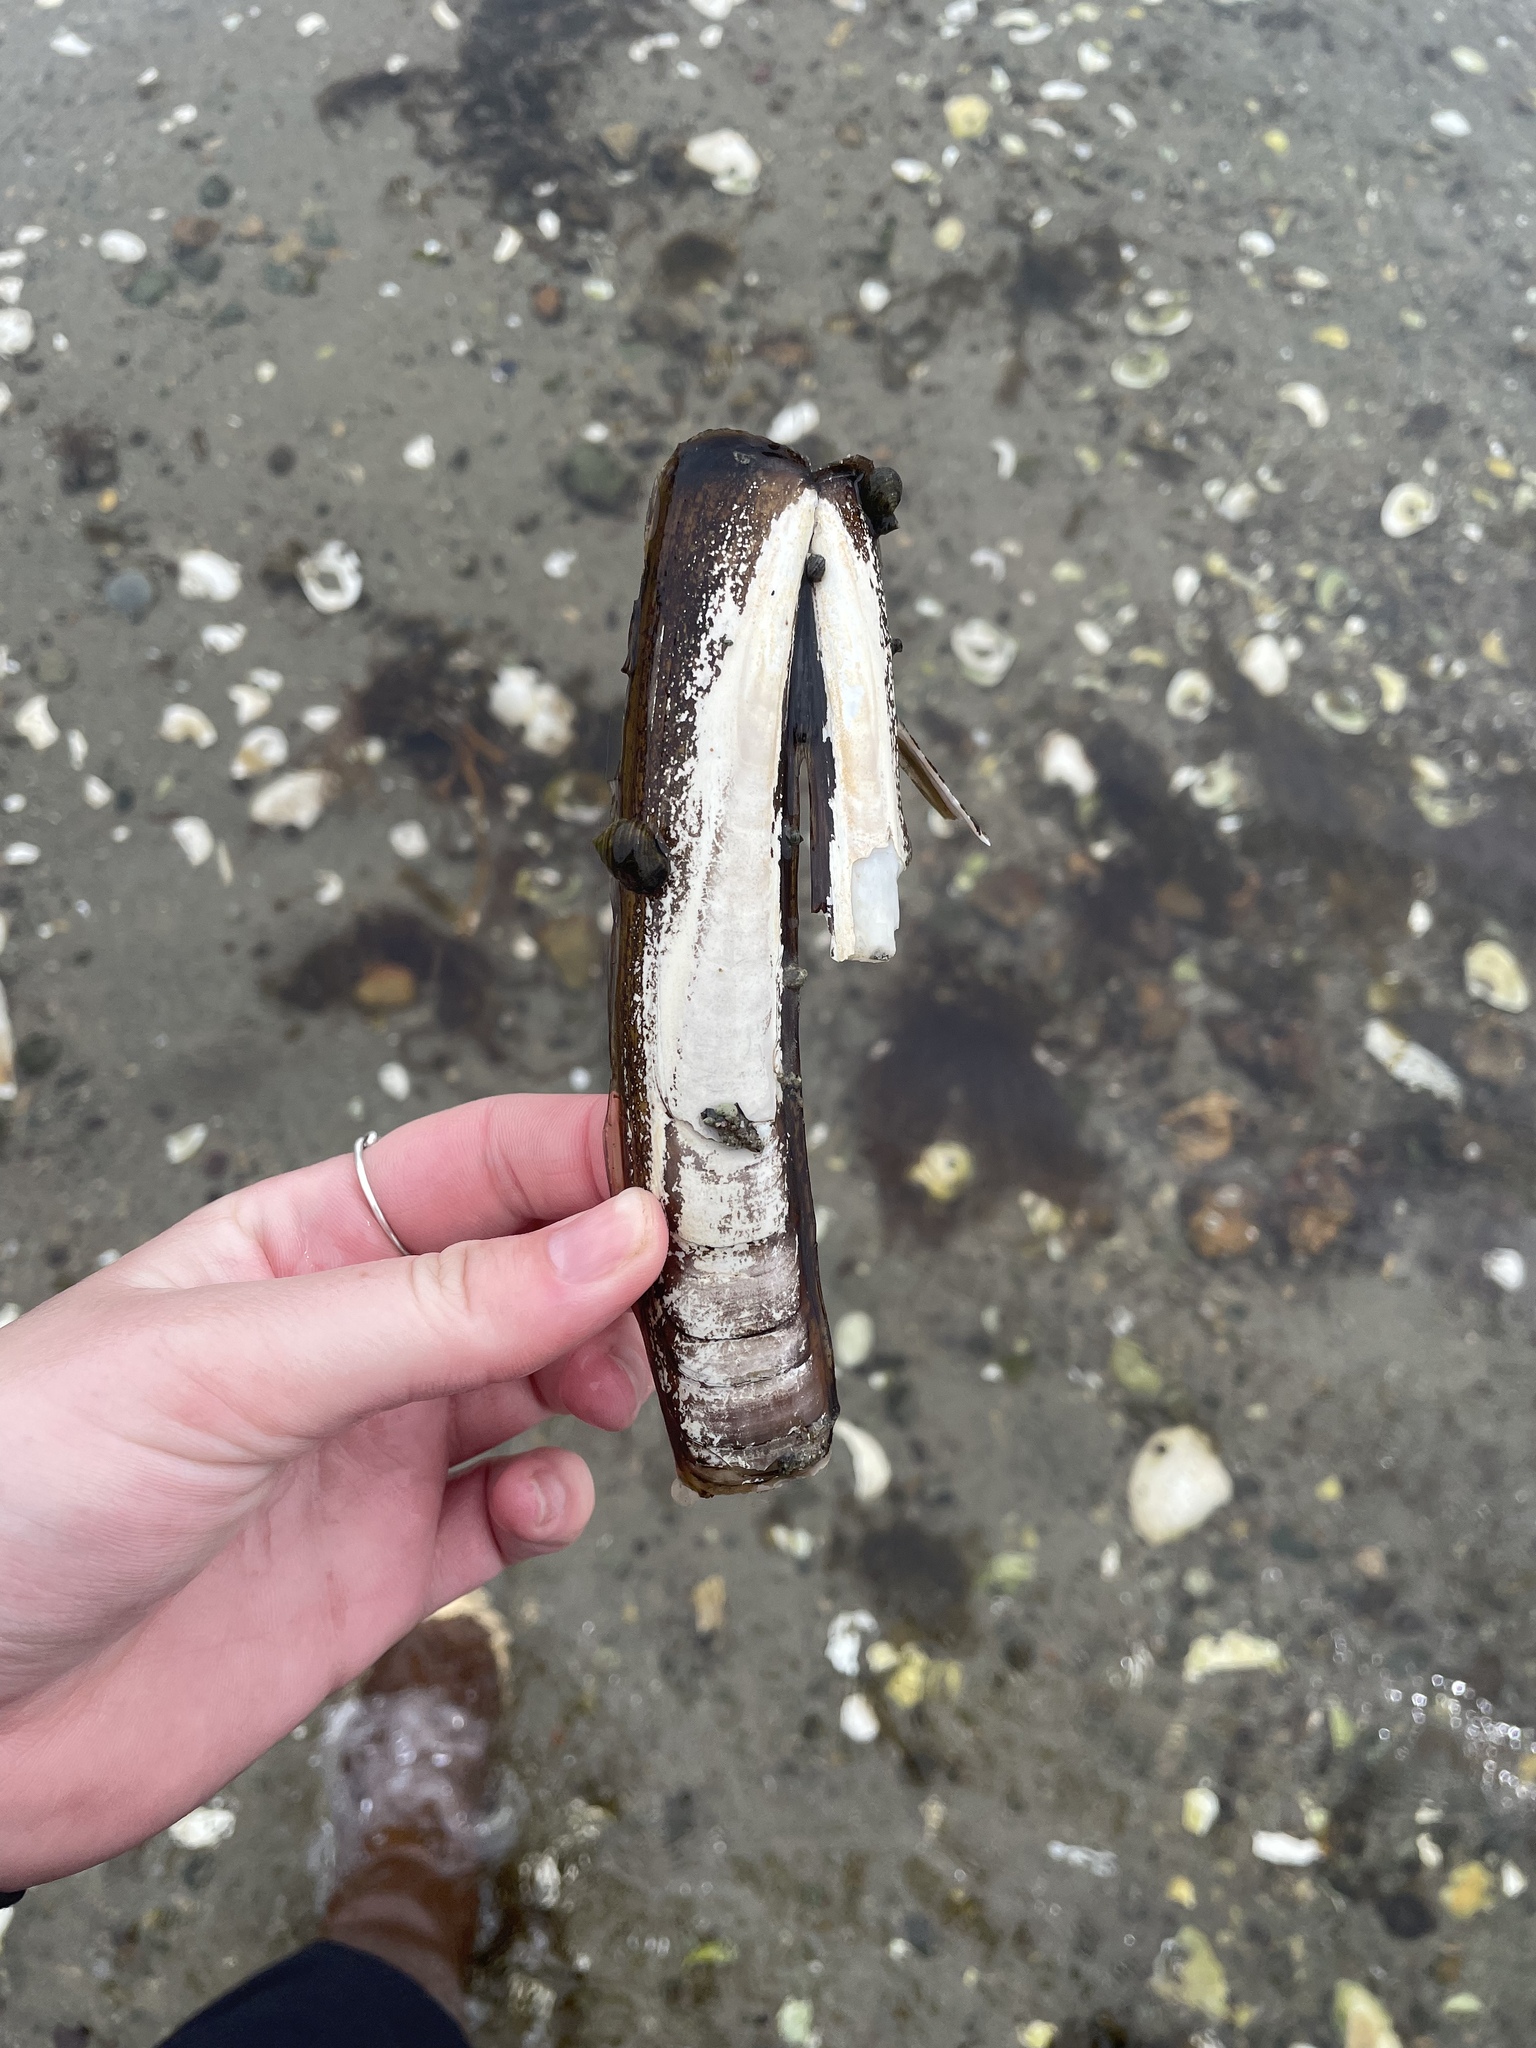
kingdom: Animalia
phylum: Mollusca
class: Bivalvia
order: Adapedonta
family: Pharidae
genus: Ensis
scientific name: Ensis leei
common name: American jack knife clam
